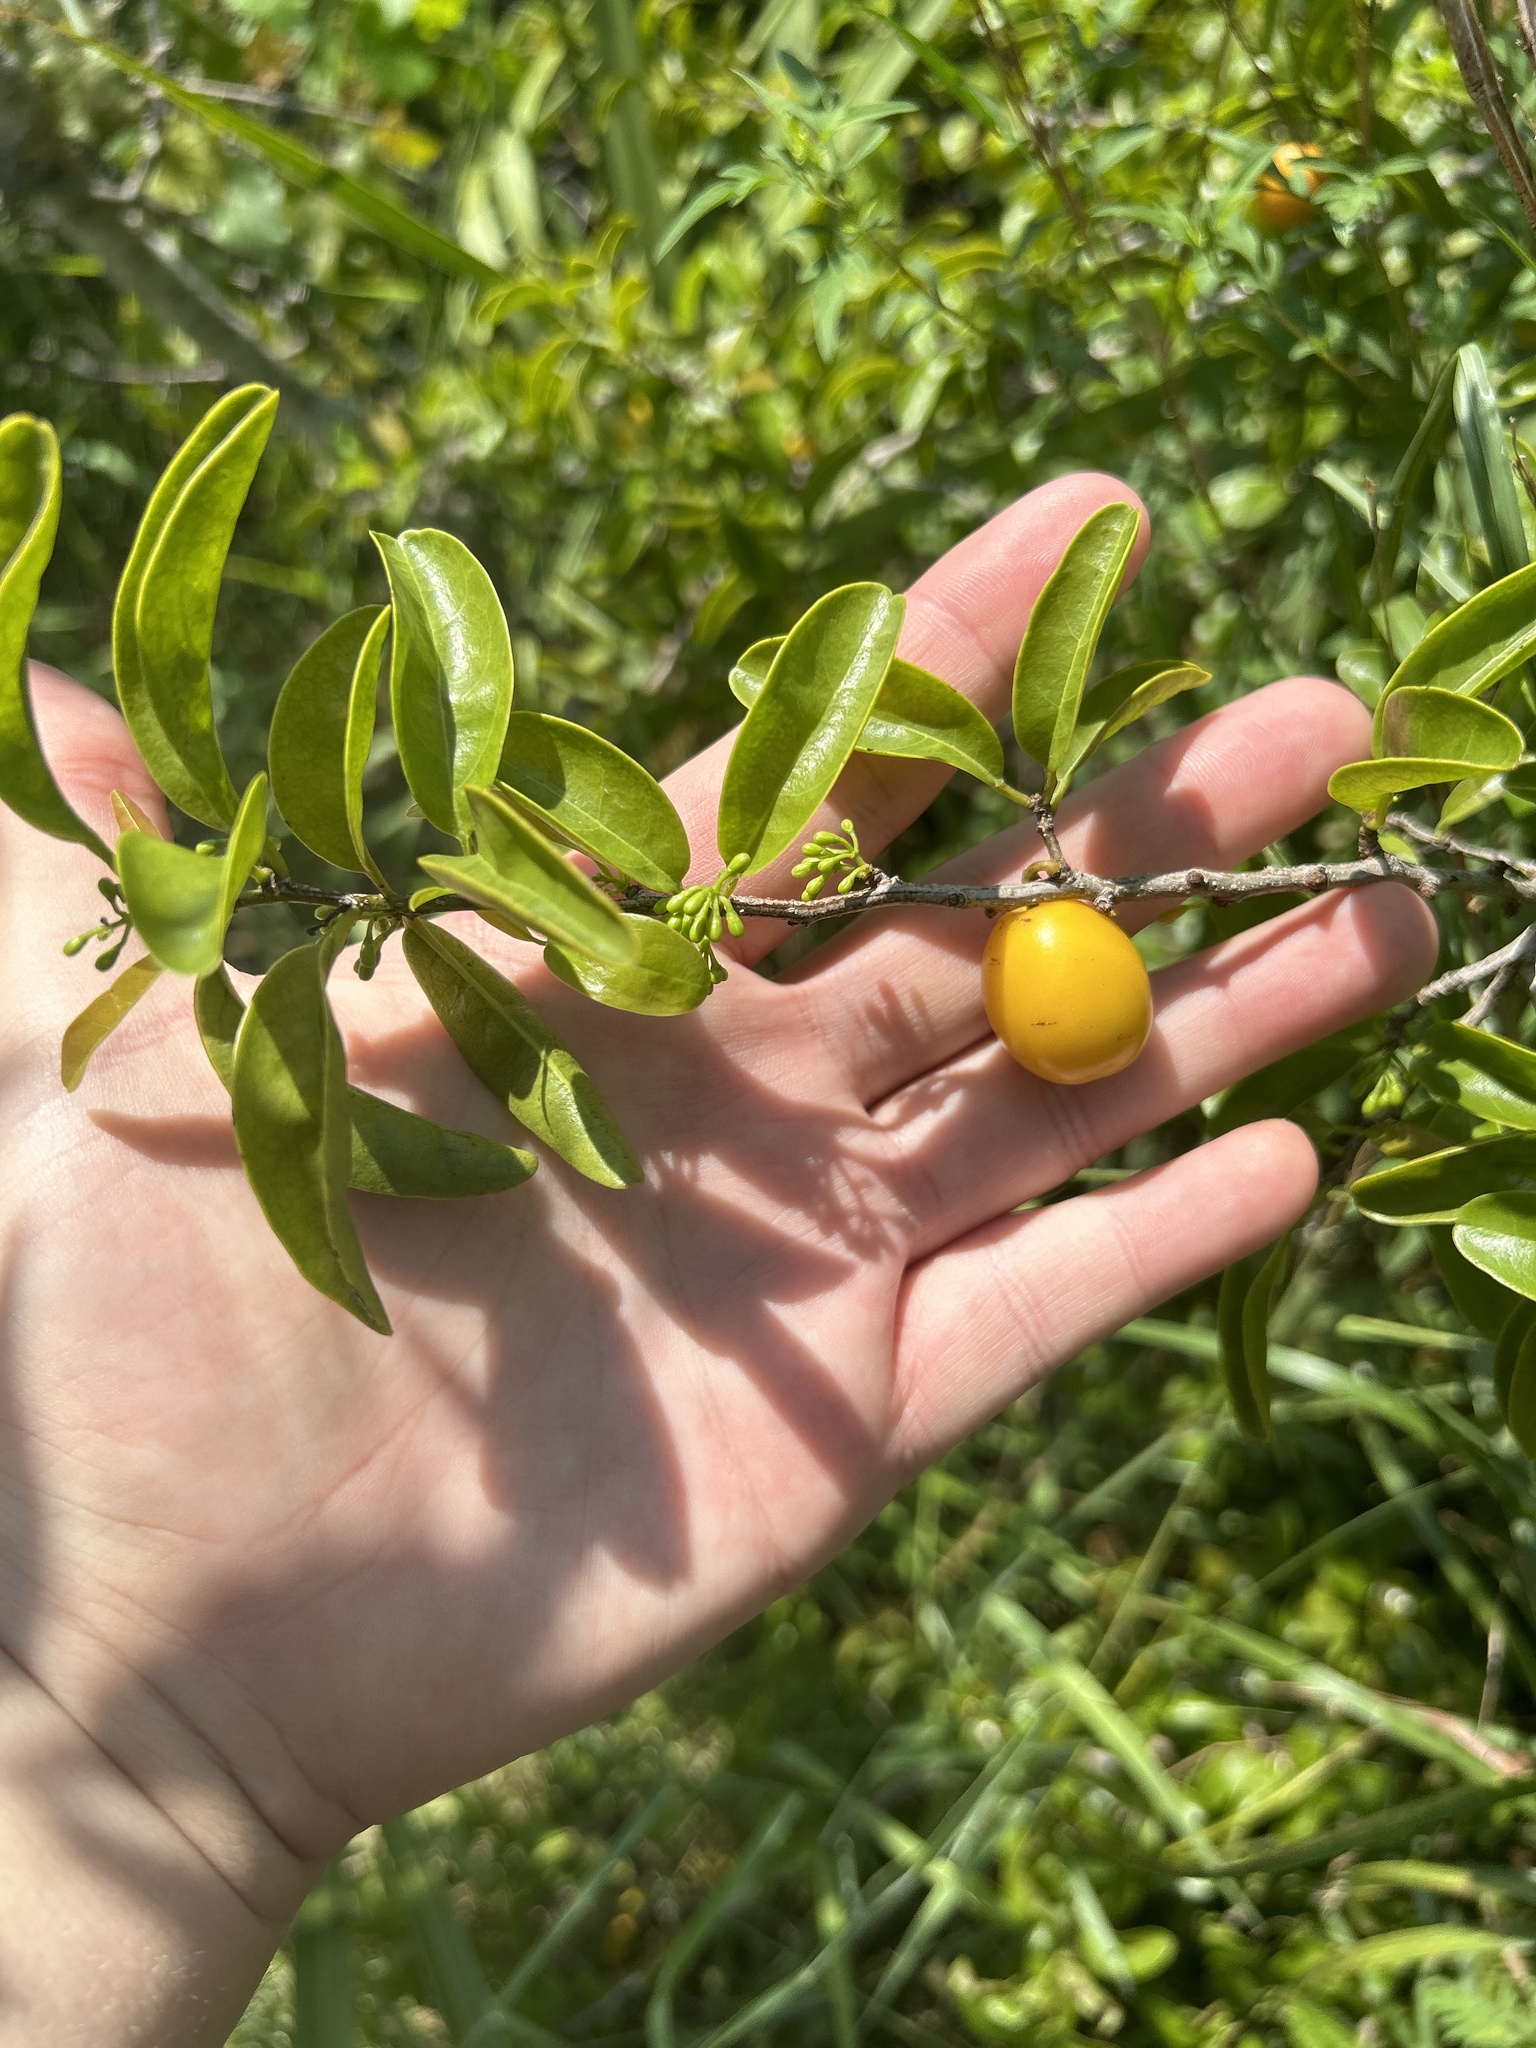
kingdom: Plantae
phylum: Tracheophyta
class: Magnoliopsida
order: Santalales
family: Ximeniaceae
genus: Ximenia
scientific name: Ximenia americana
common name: Tallowwood
